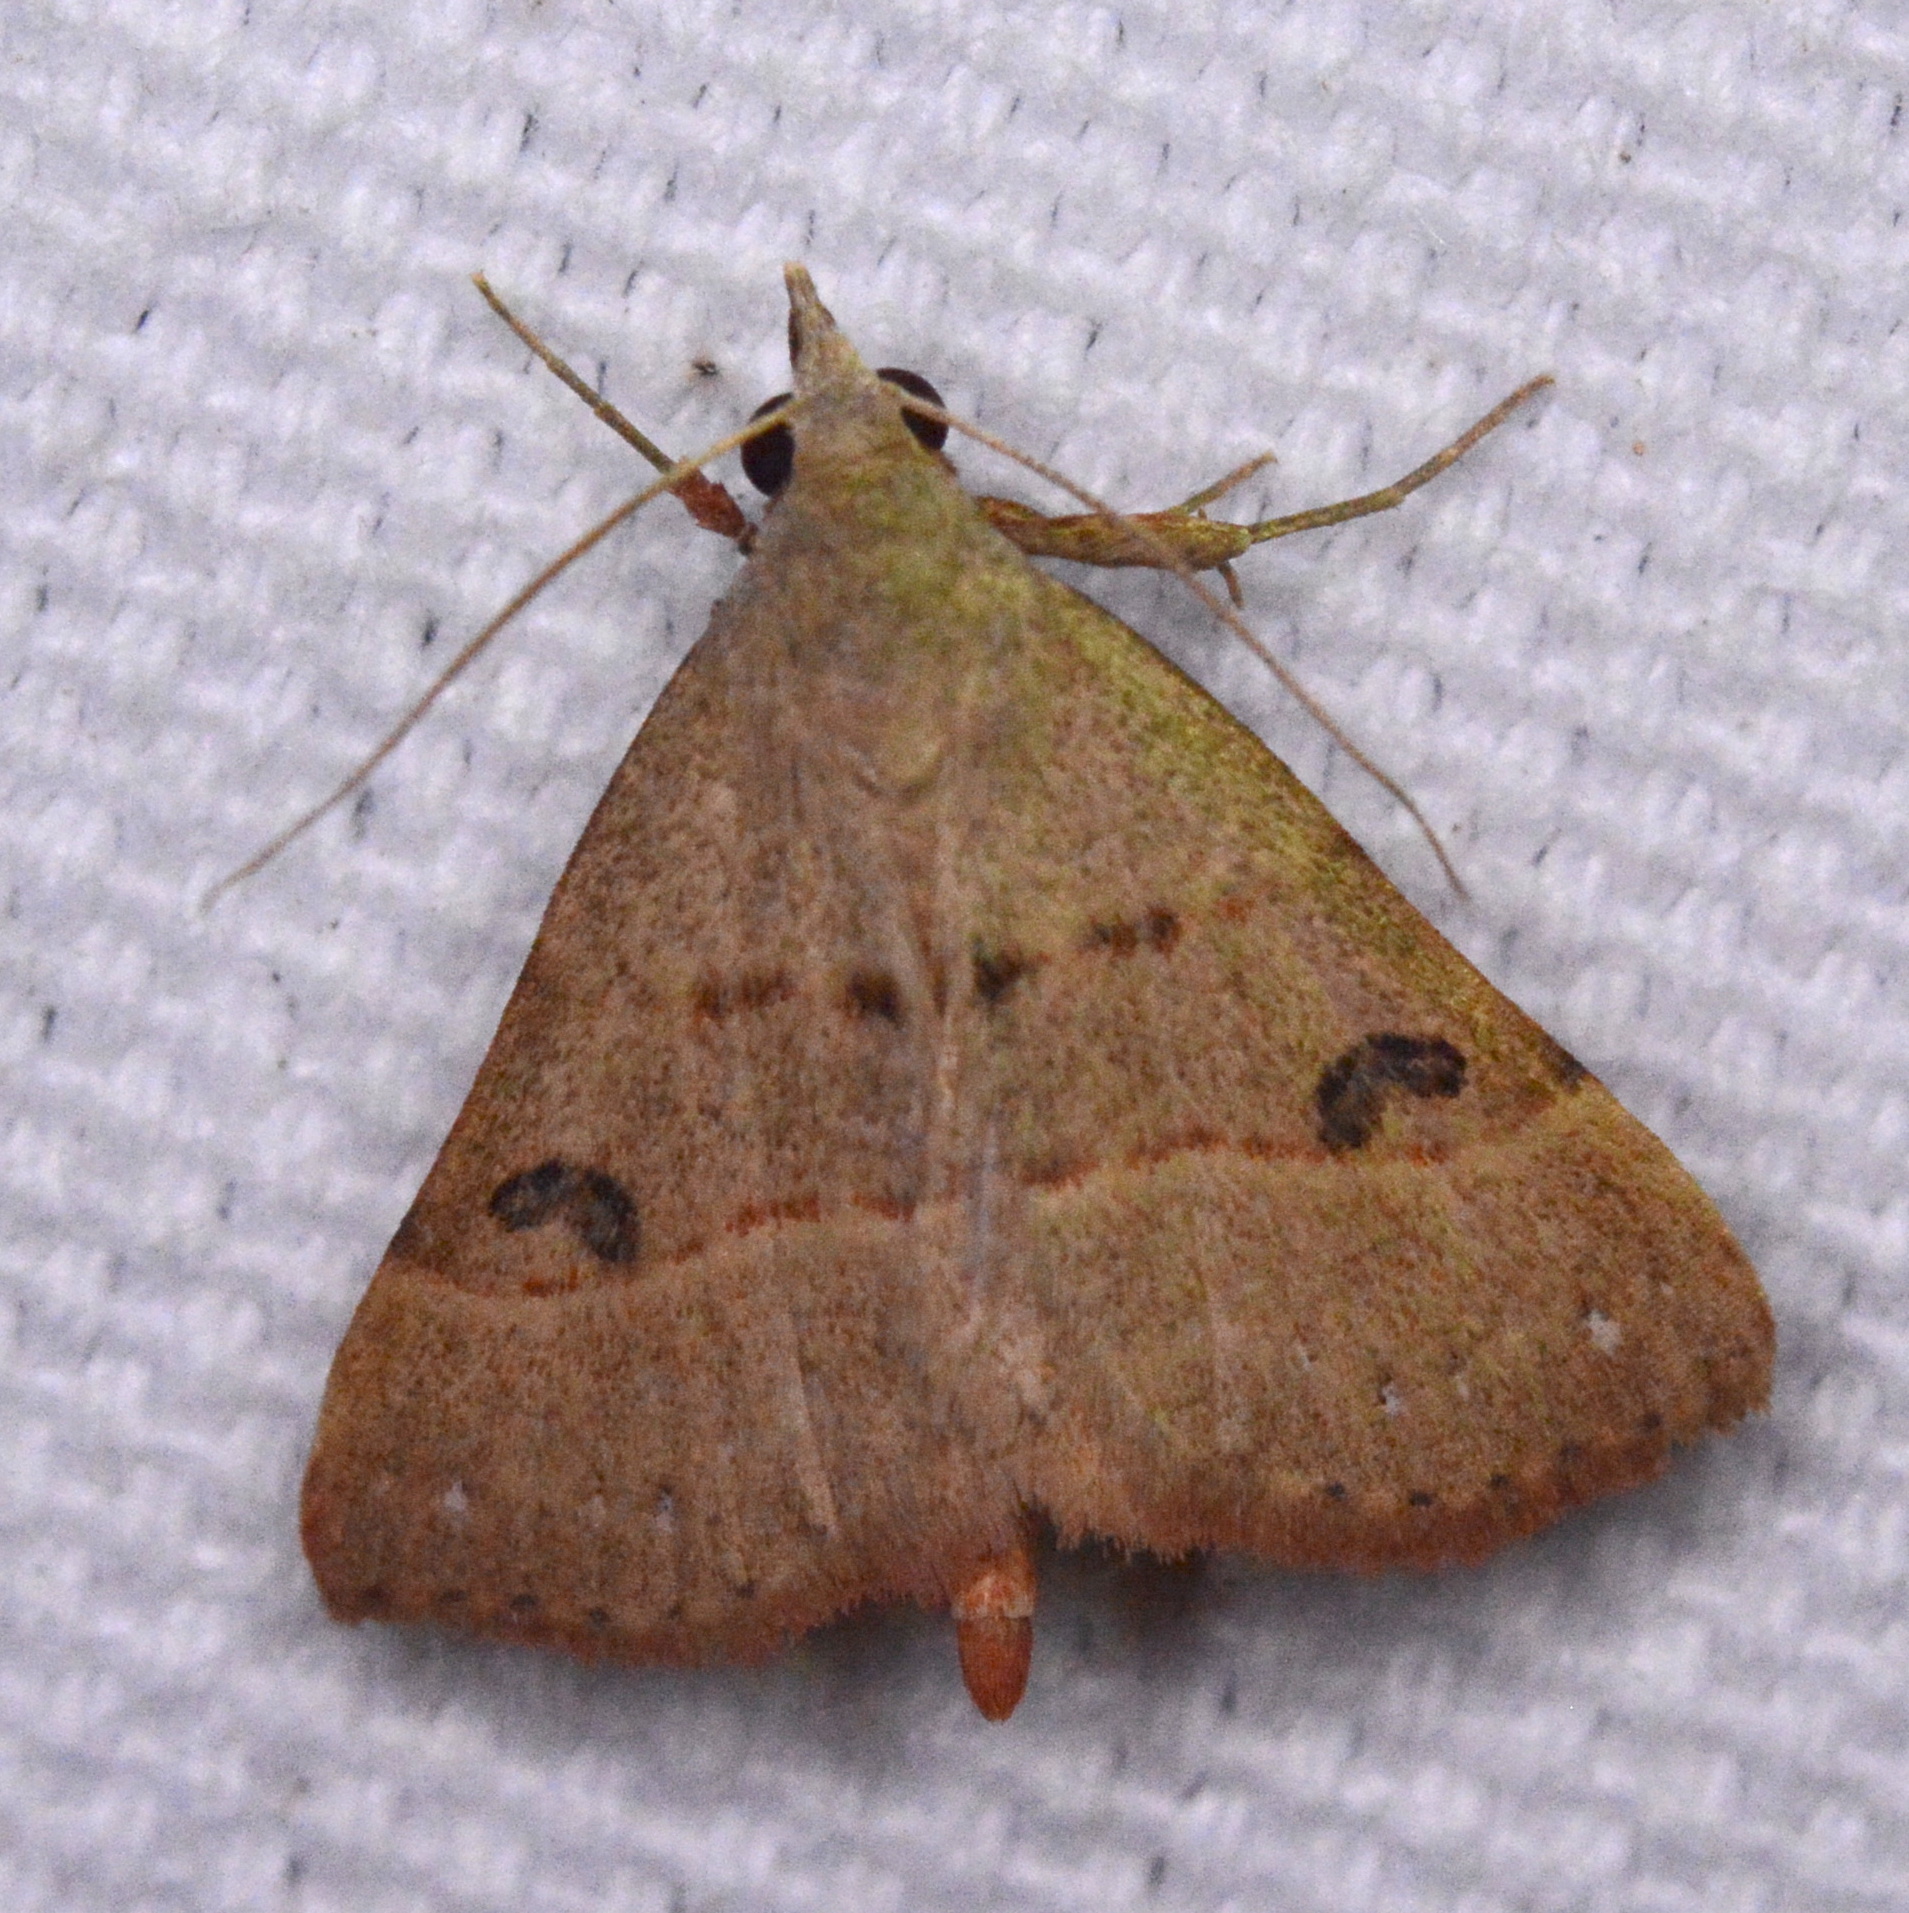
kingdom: Animalia
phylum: Arthropoda
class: Insecta
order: Lepidoptera
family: Erebidae
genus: Hemeroplanis
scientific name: Hemeroplanis habitalis
